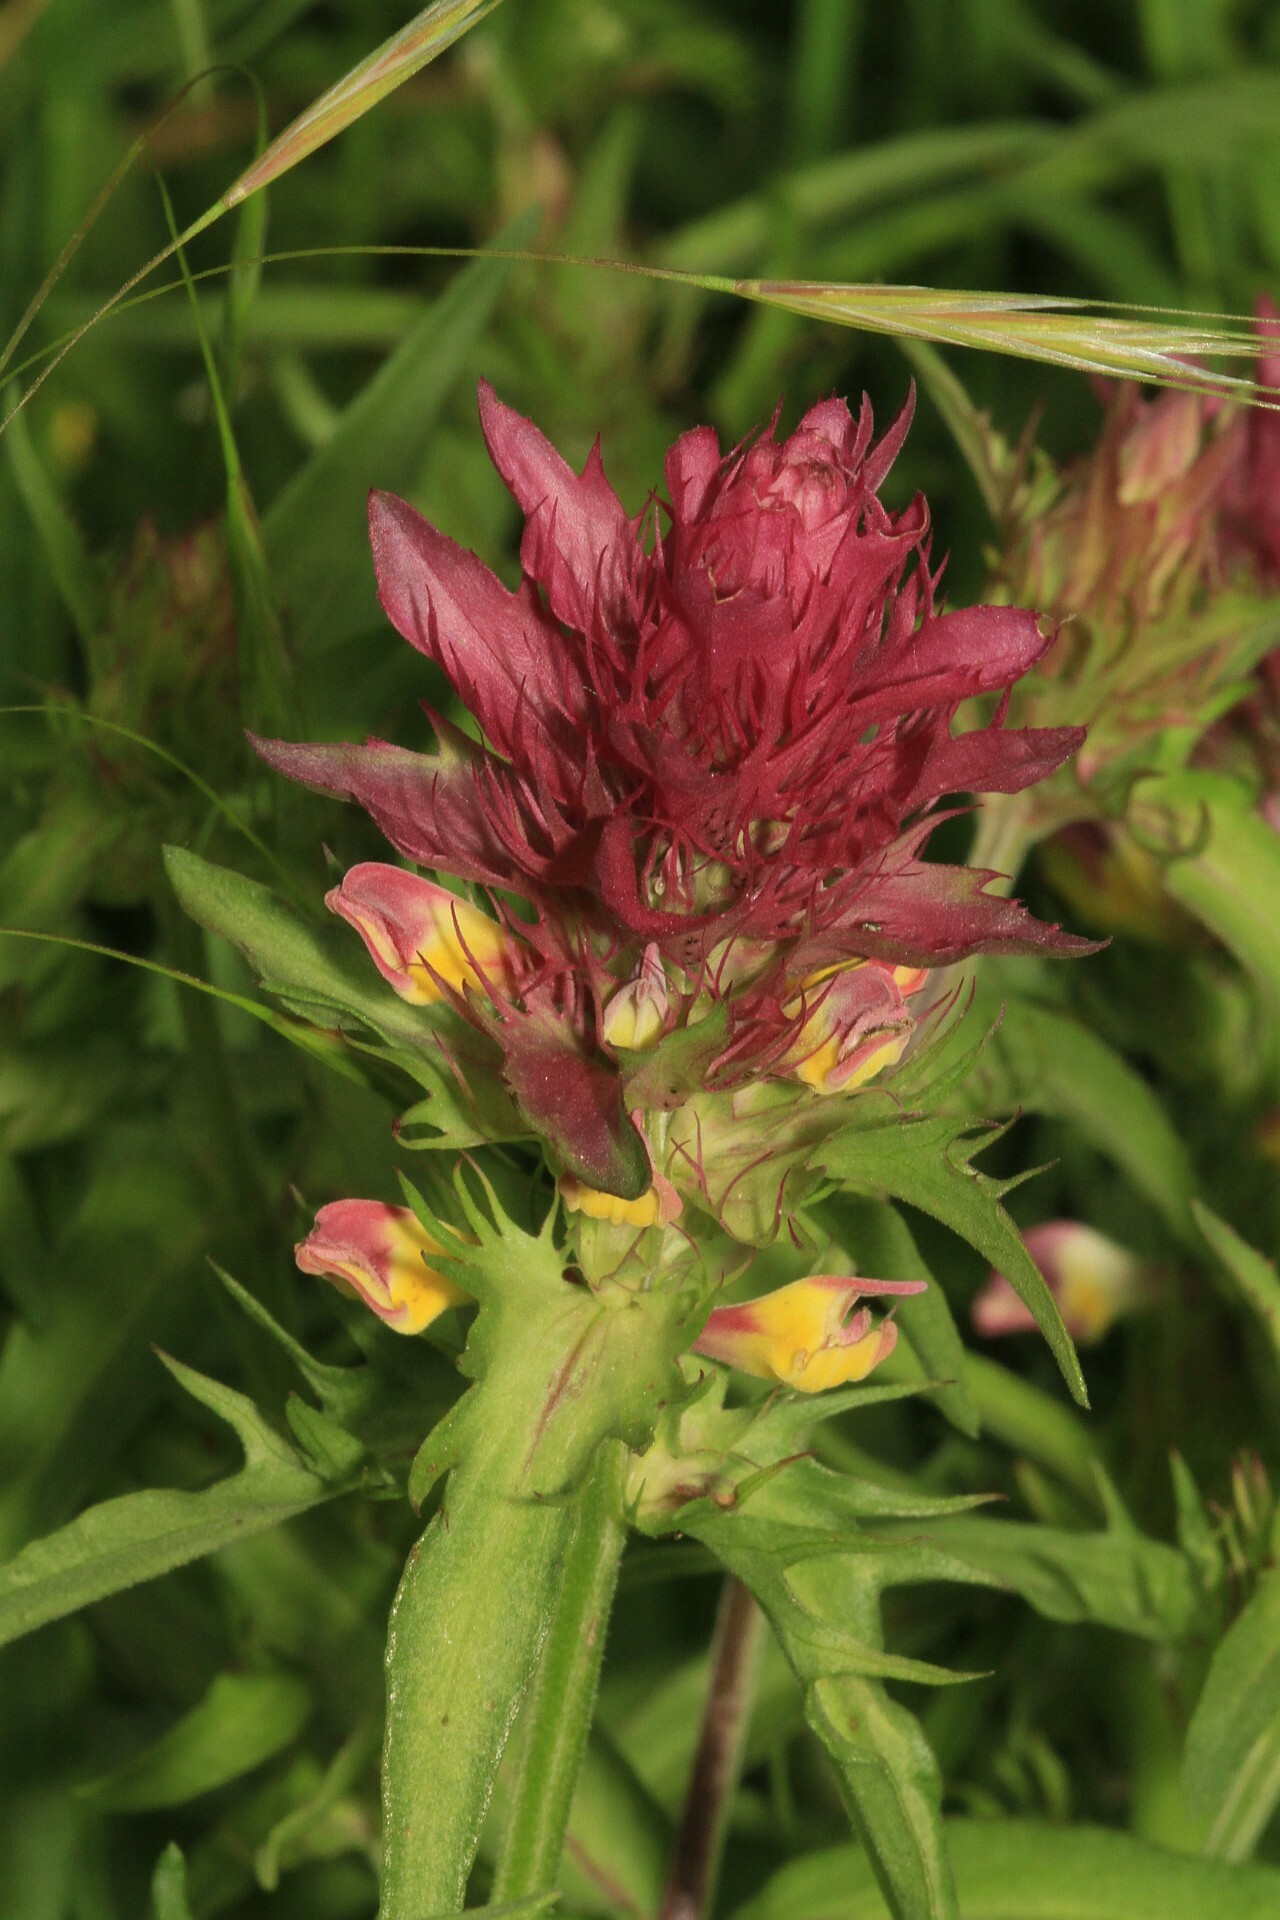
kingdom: Plantae
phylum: Tracheophyta
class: Magnoliopsida
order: Lamiales
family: Orobanchaceae
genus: Melampyrum
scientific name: Melampyrum arvense
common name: Field cow-wheat
